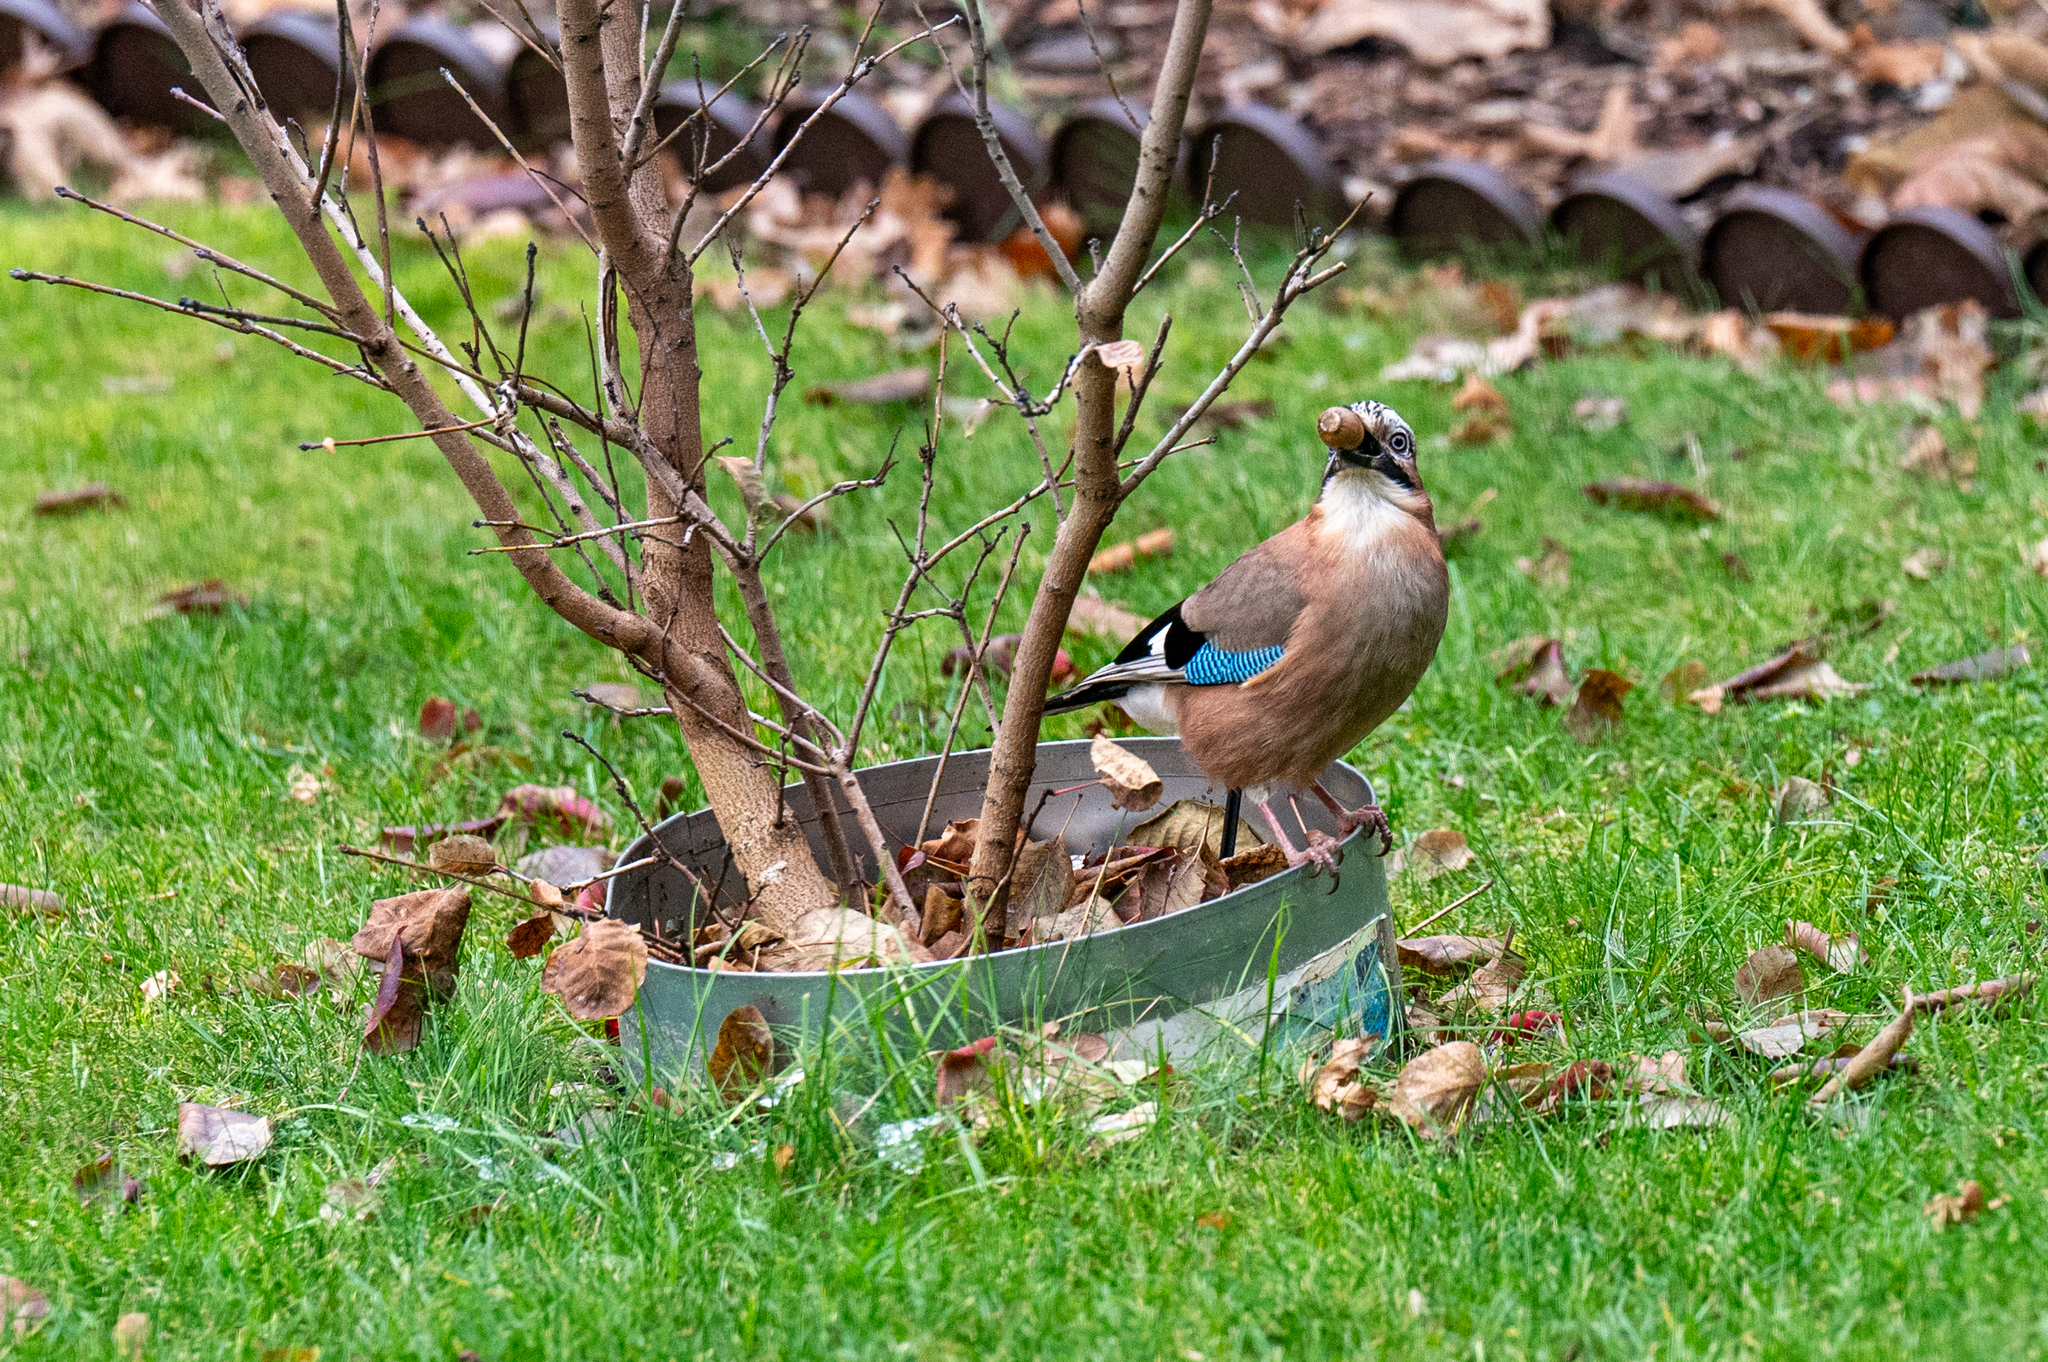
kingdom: Animalia
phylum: Chordata
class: Aves
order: Passeriformes
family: Corvidae
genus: Garrulus
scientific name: Garrulus glandarius
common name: Eurasian jay
